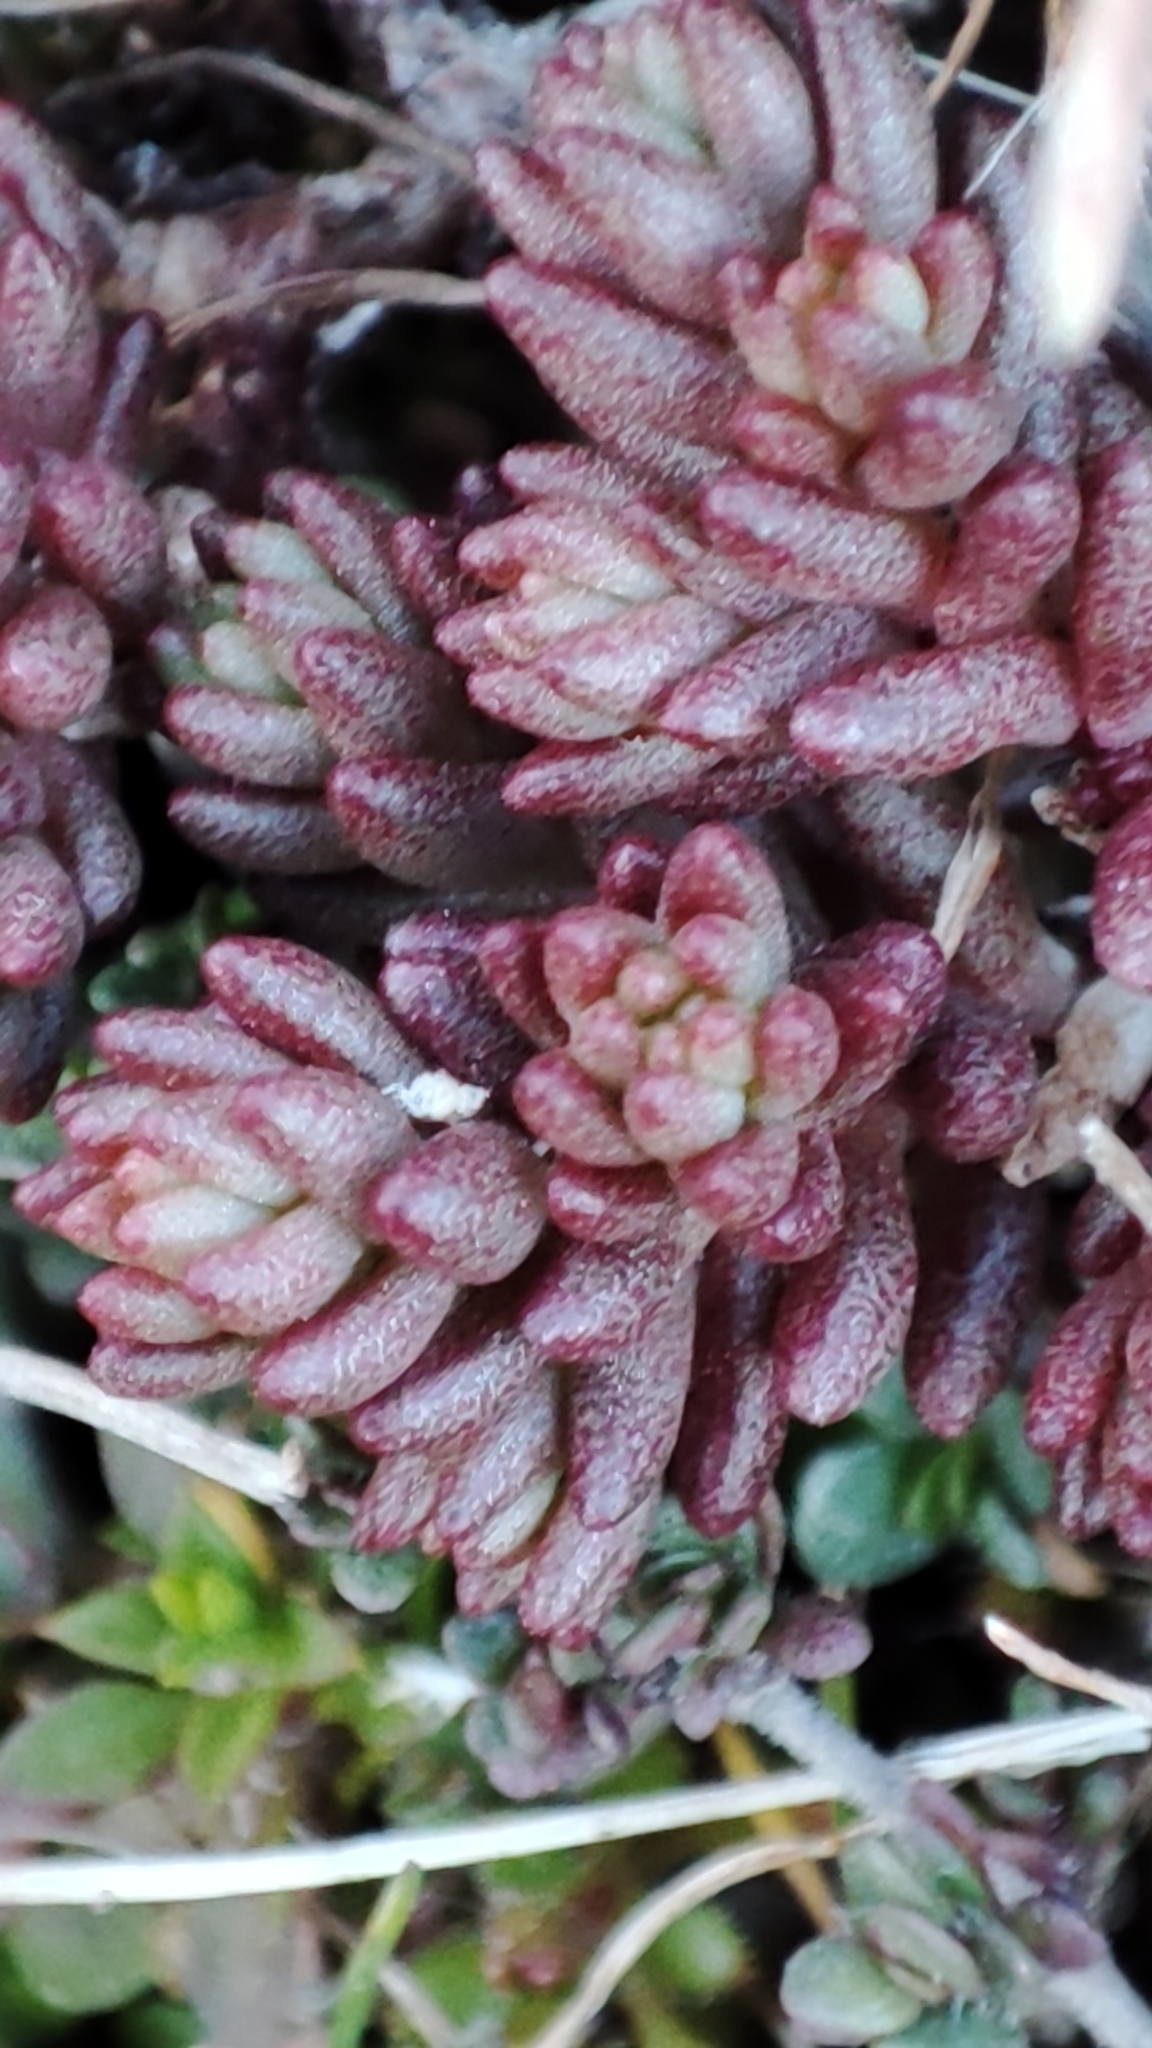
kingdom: Plantae
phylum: Tracheophyta
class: Magnoliopsida
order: Saxifragales
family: Crassulaceae
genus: Sedum
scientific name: Sedum urvillei
